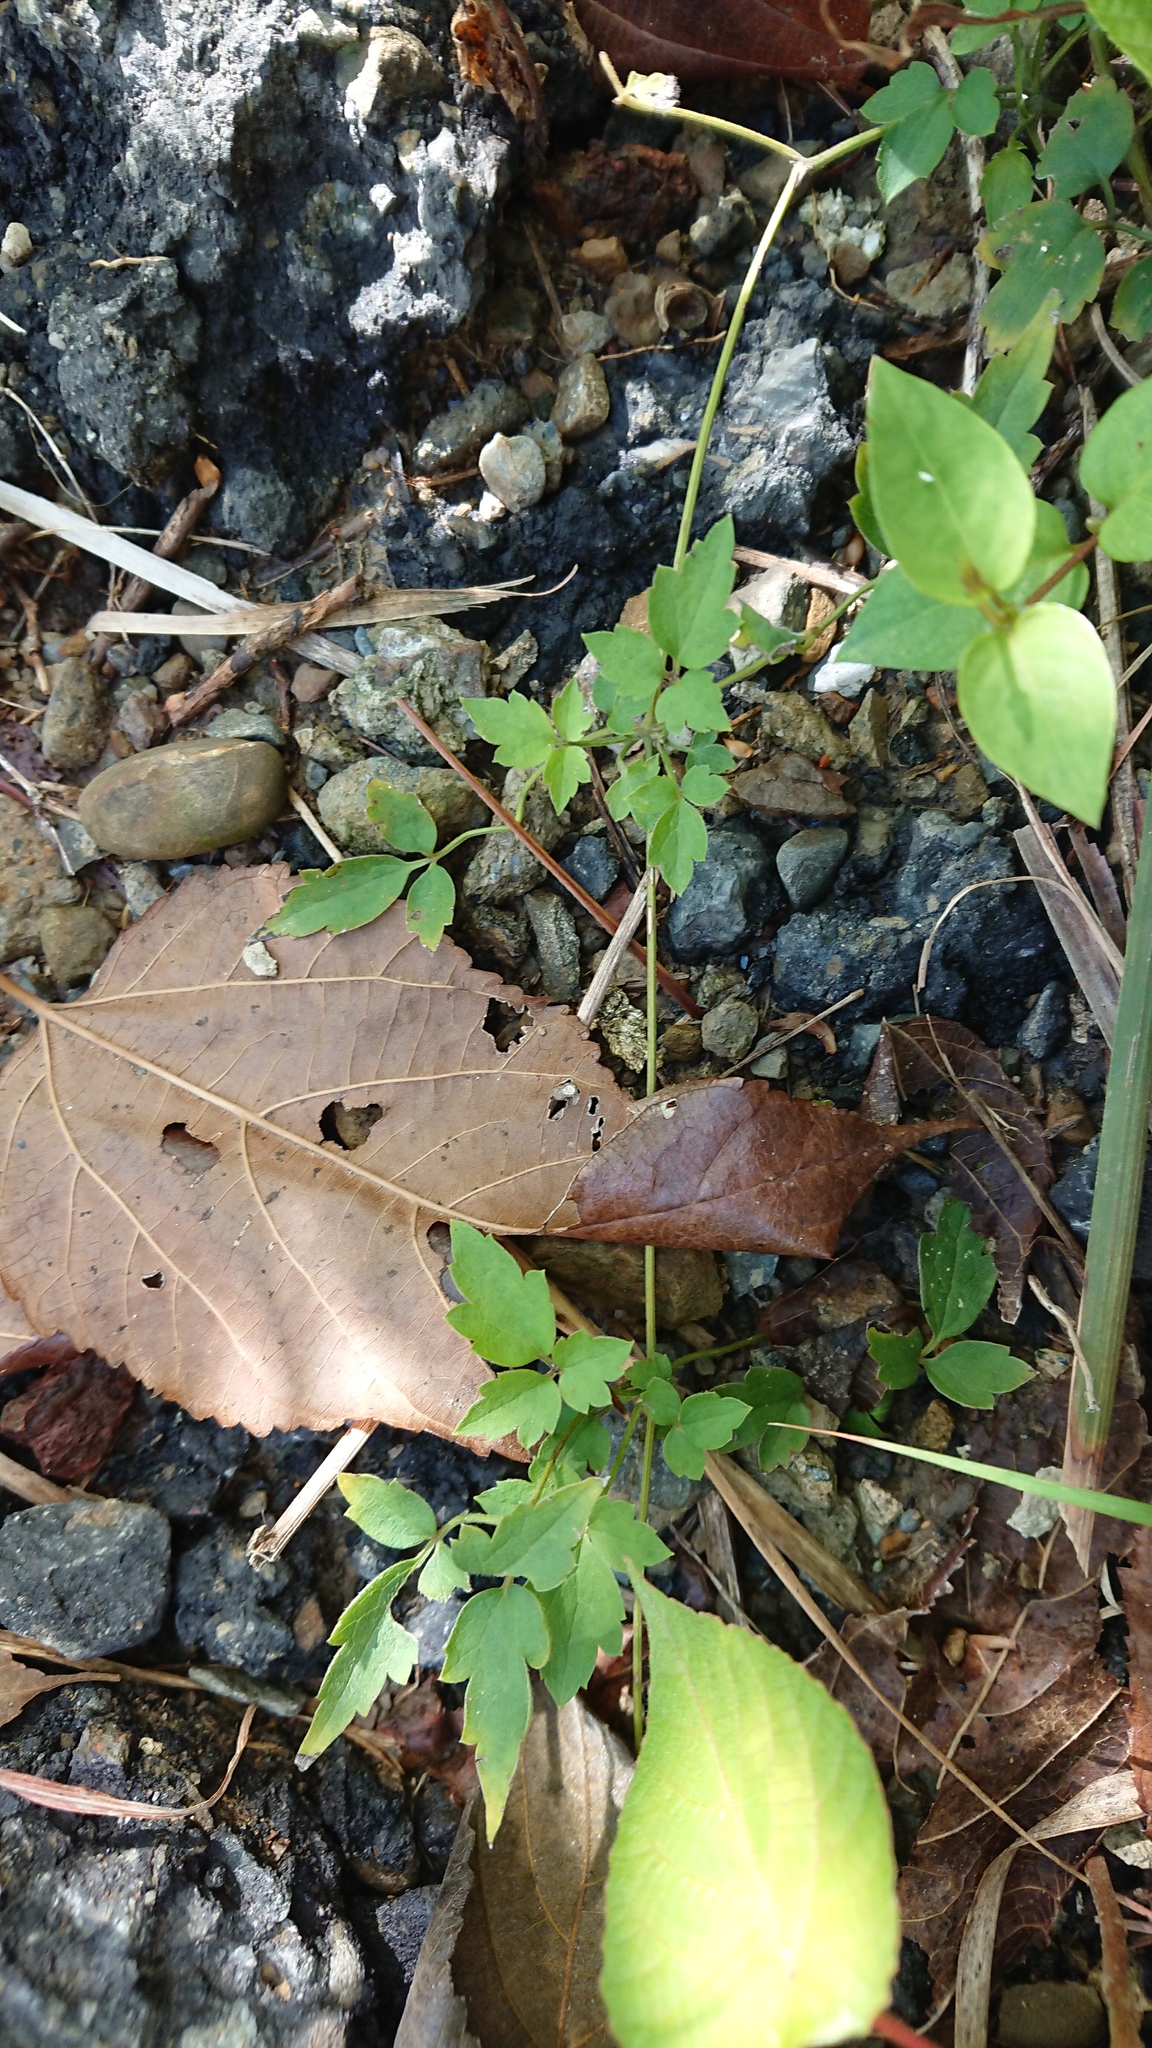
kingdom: Plantae
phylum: Tracheophyta
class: Magnoliopsida
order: Ranunculales
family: Ranunculaceae
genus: Clematis
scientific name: Clematis grata
